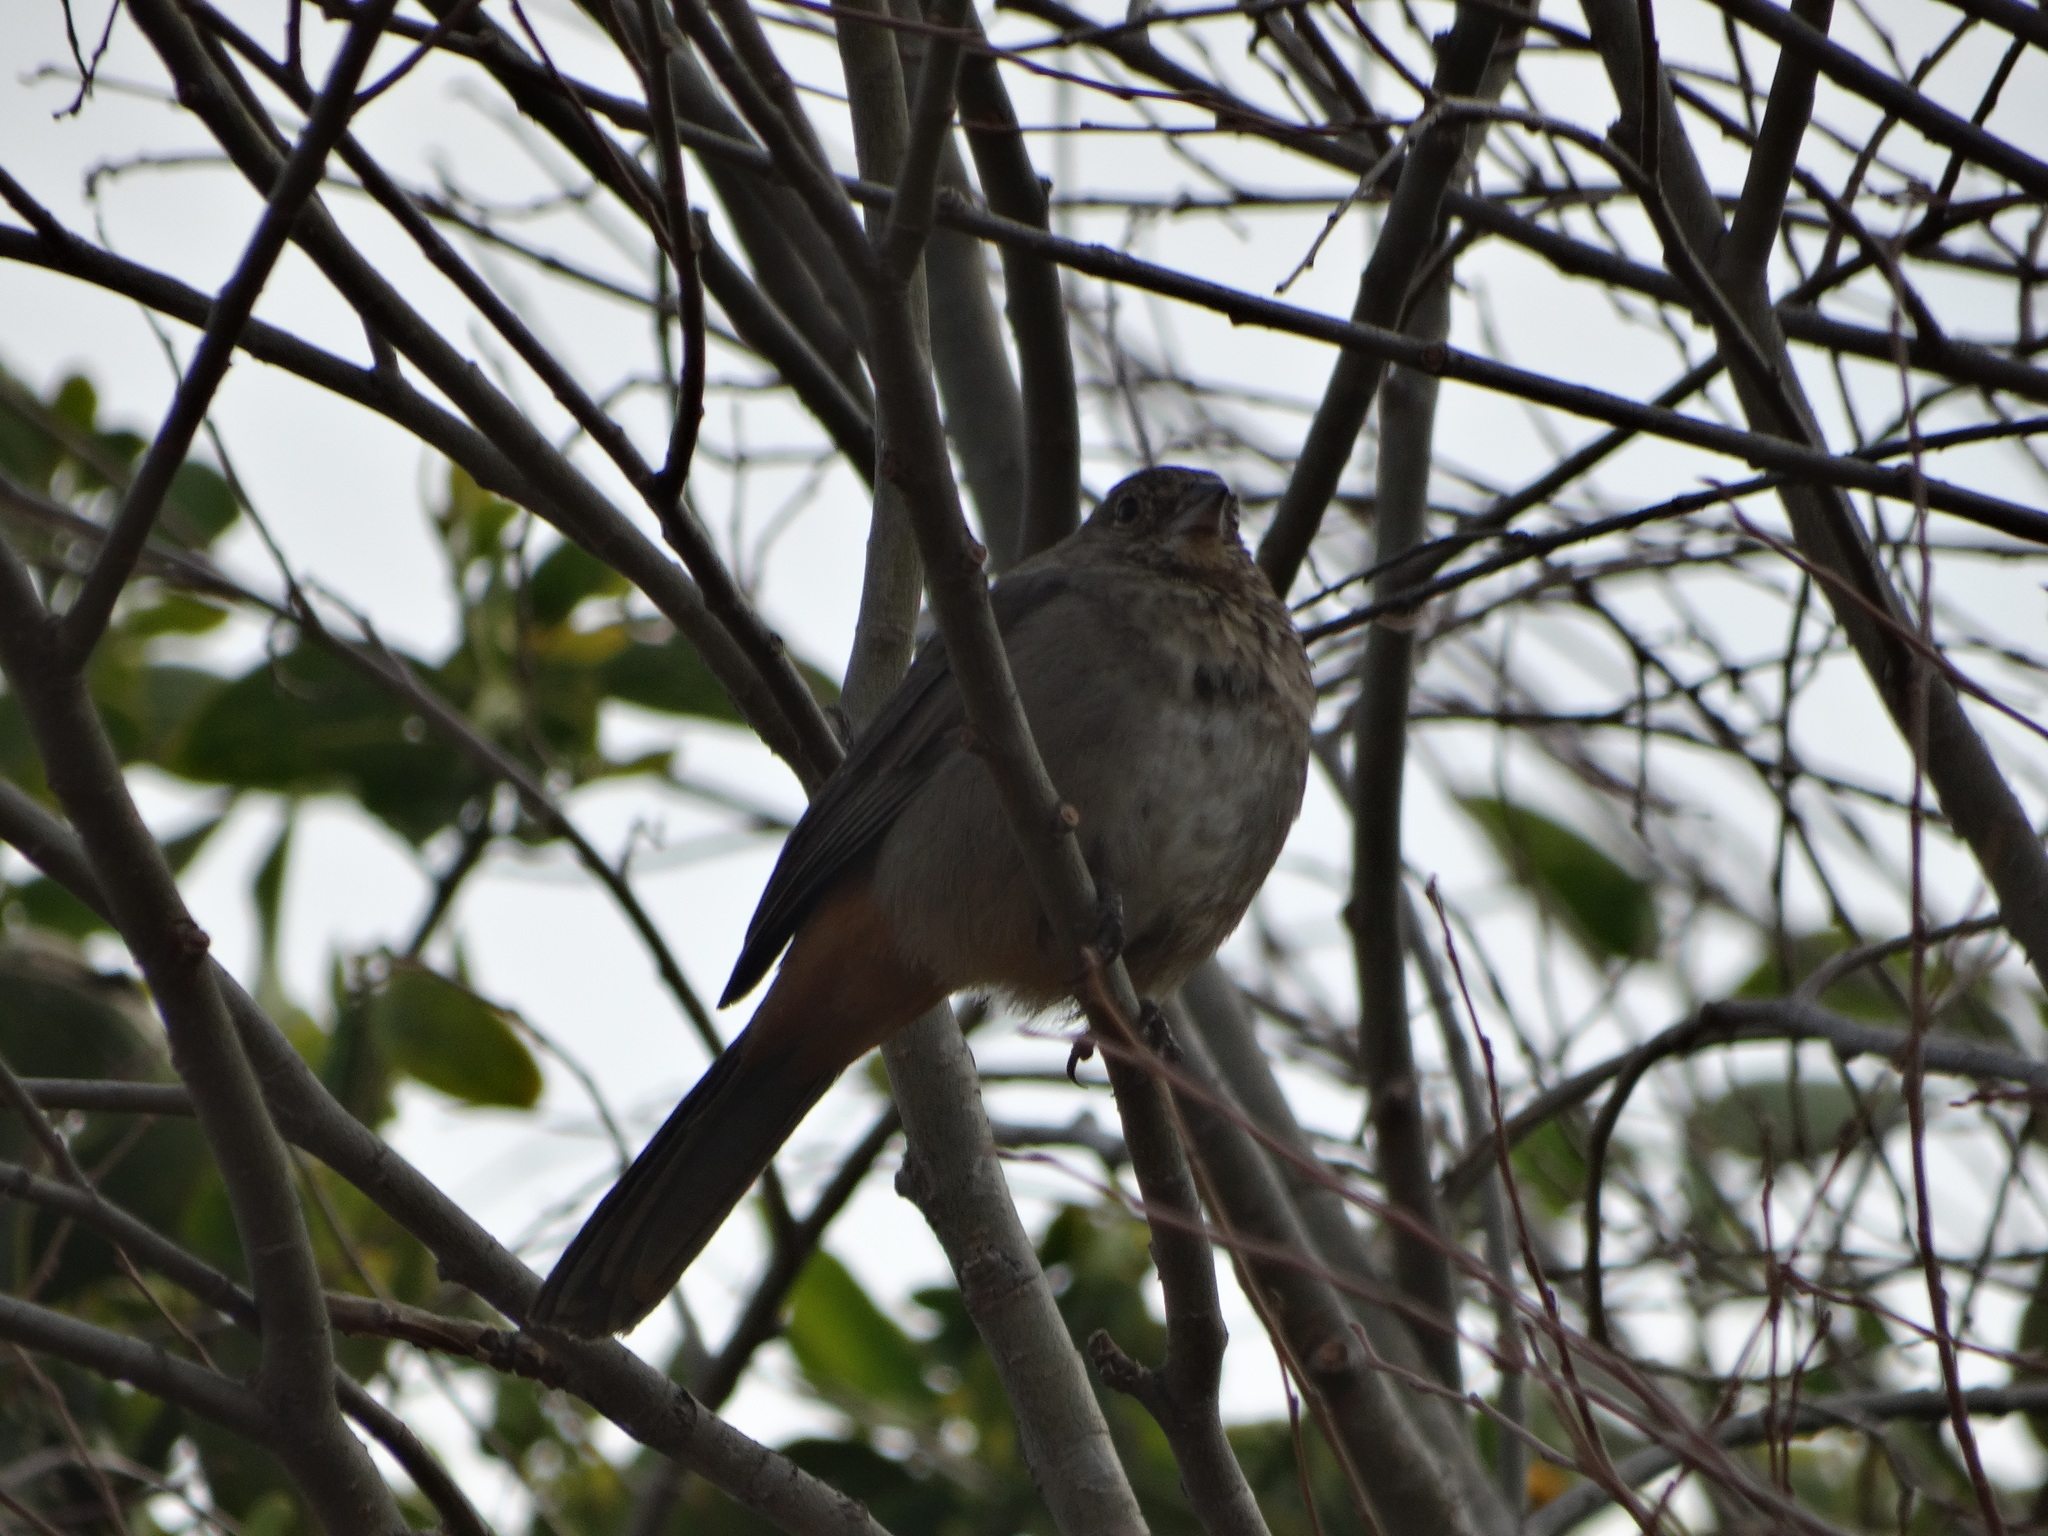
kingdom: Animalia
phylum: Chordata
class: Aves
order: Passeriformes
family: Passerellidae
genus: Melozone
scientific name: Melozone fusca
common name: Canyon towhee
